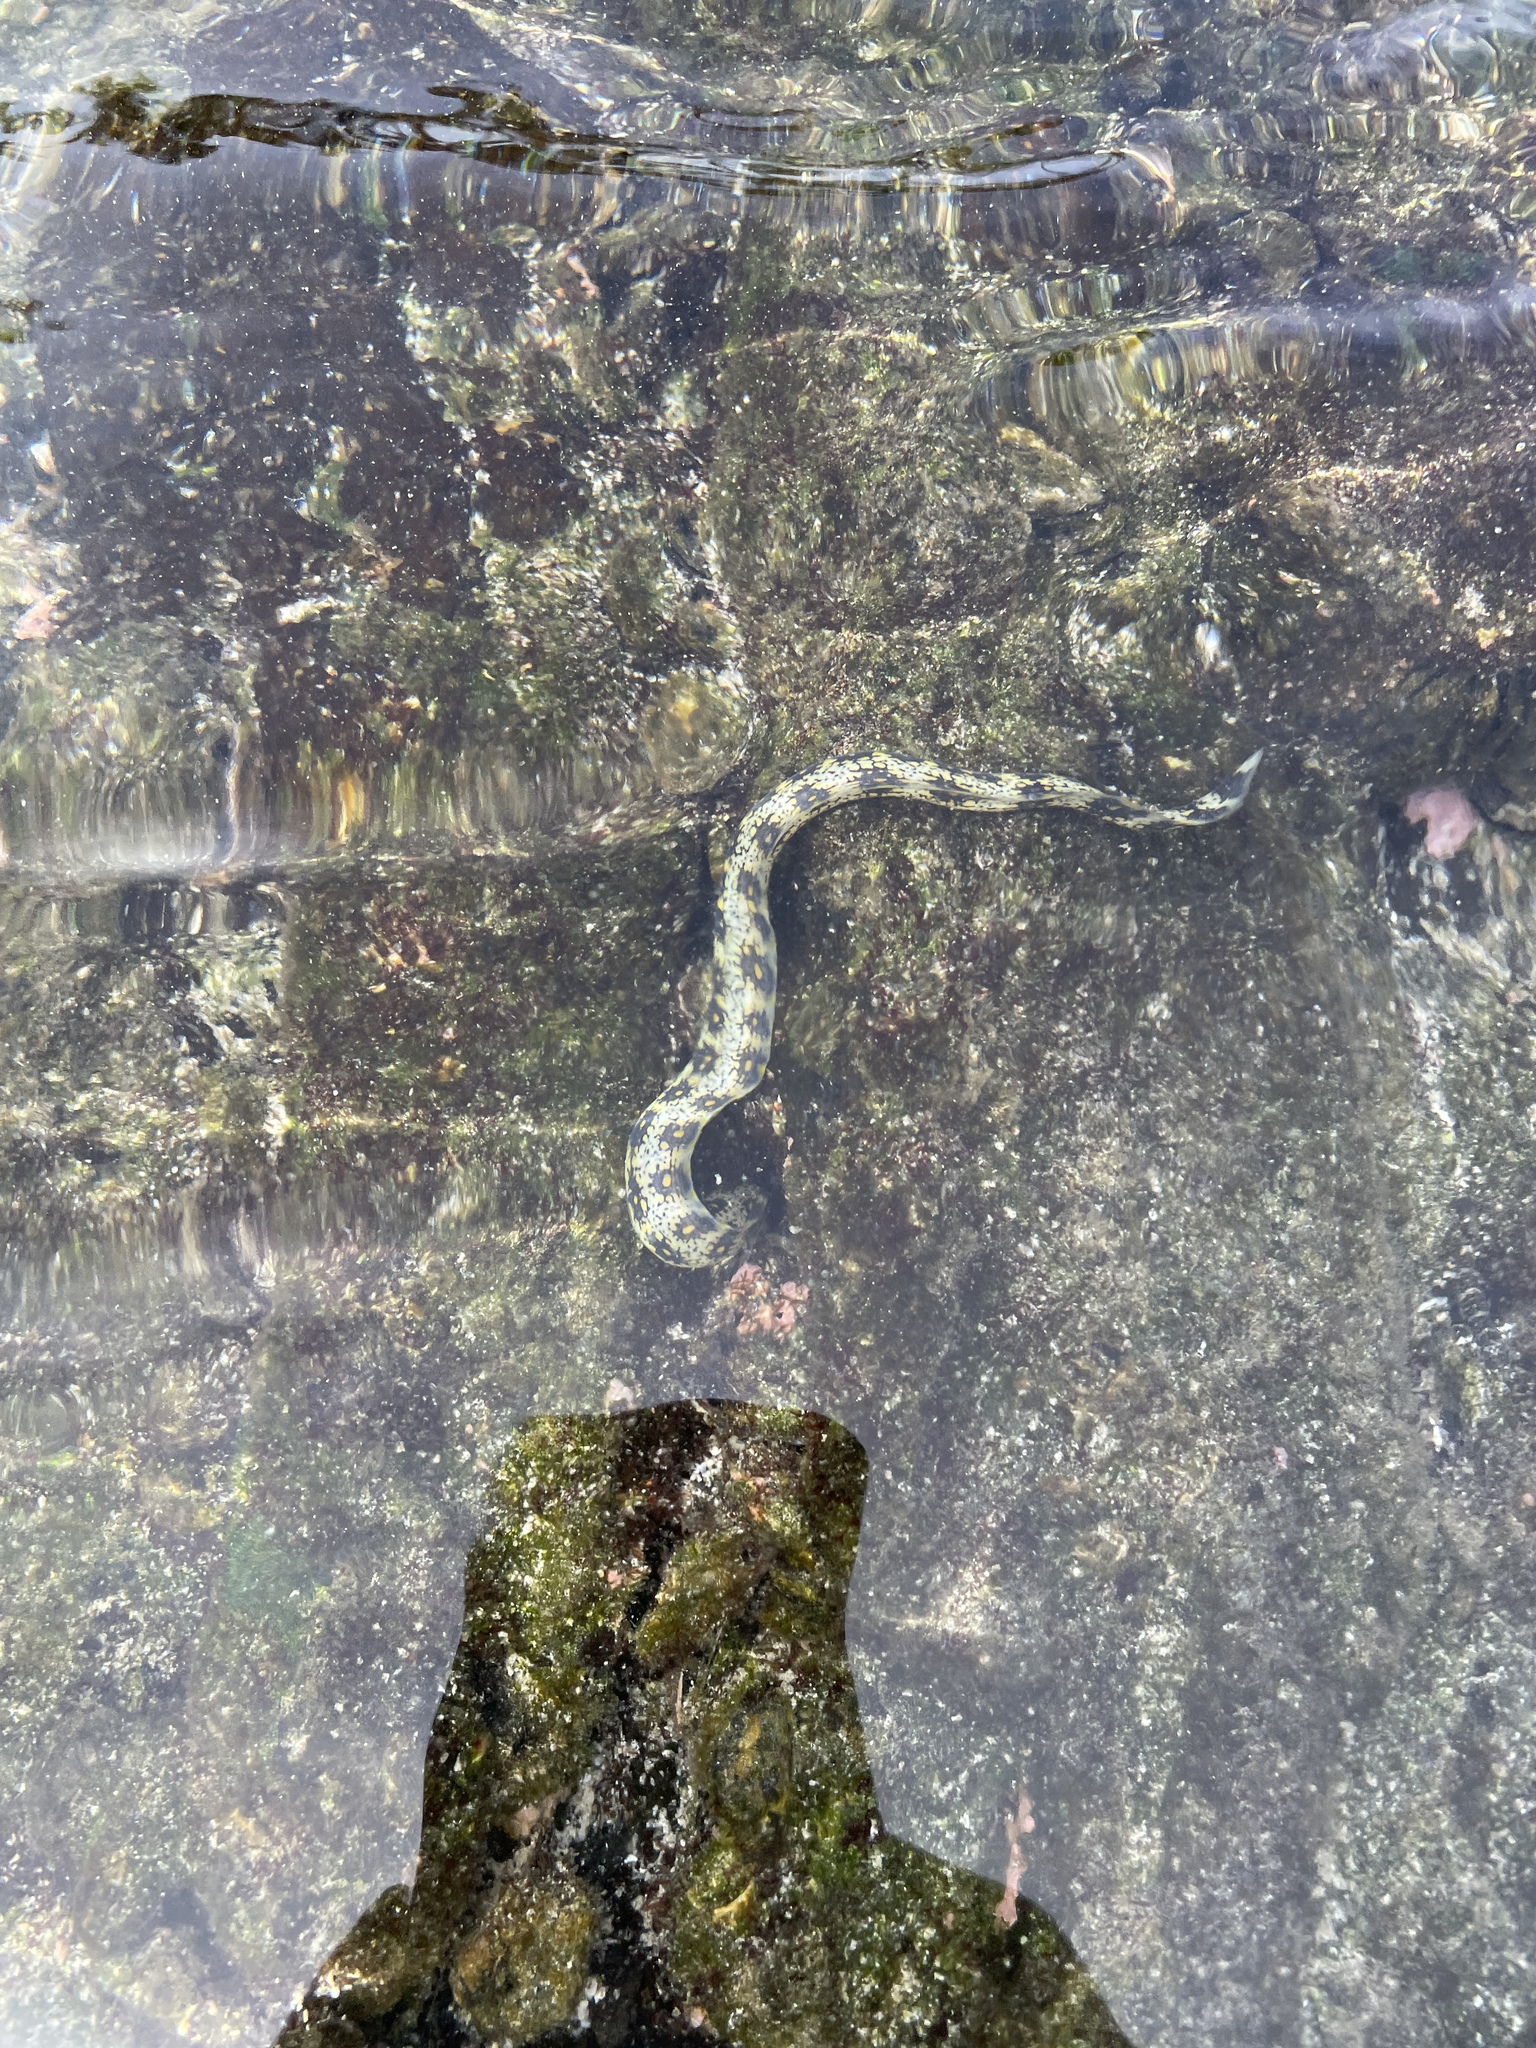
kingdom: Animalia
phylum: Chordata
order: Anguilliformes
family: Muraenidae
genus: Echidna
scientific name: Echidna nebulosa
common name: Snowflake moray
